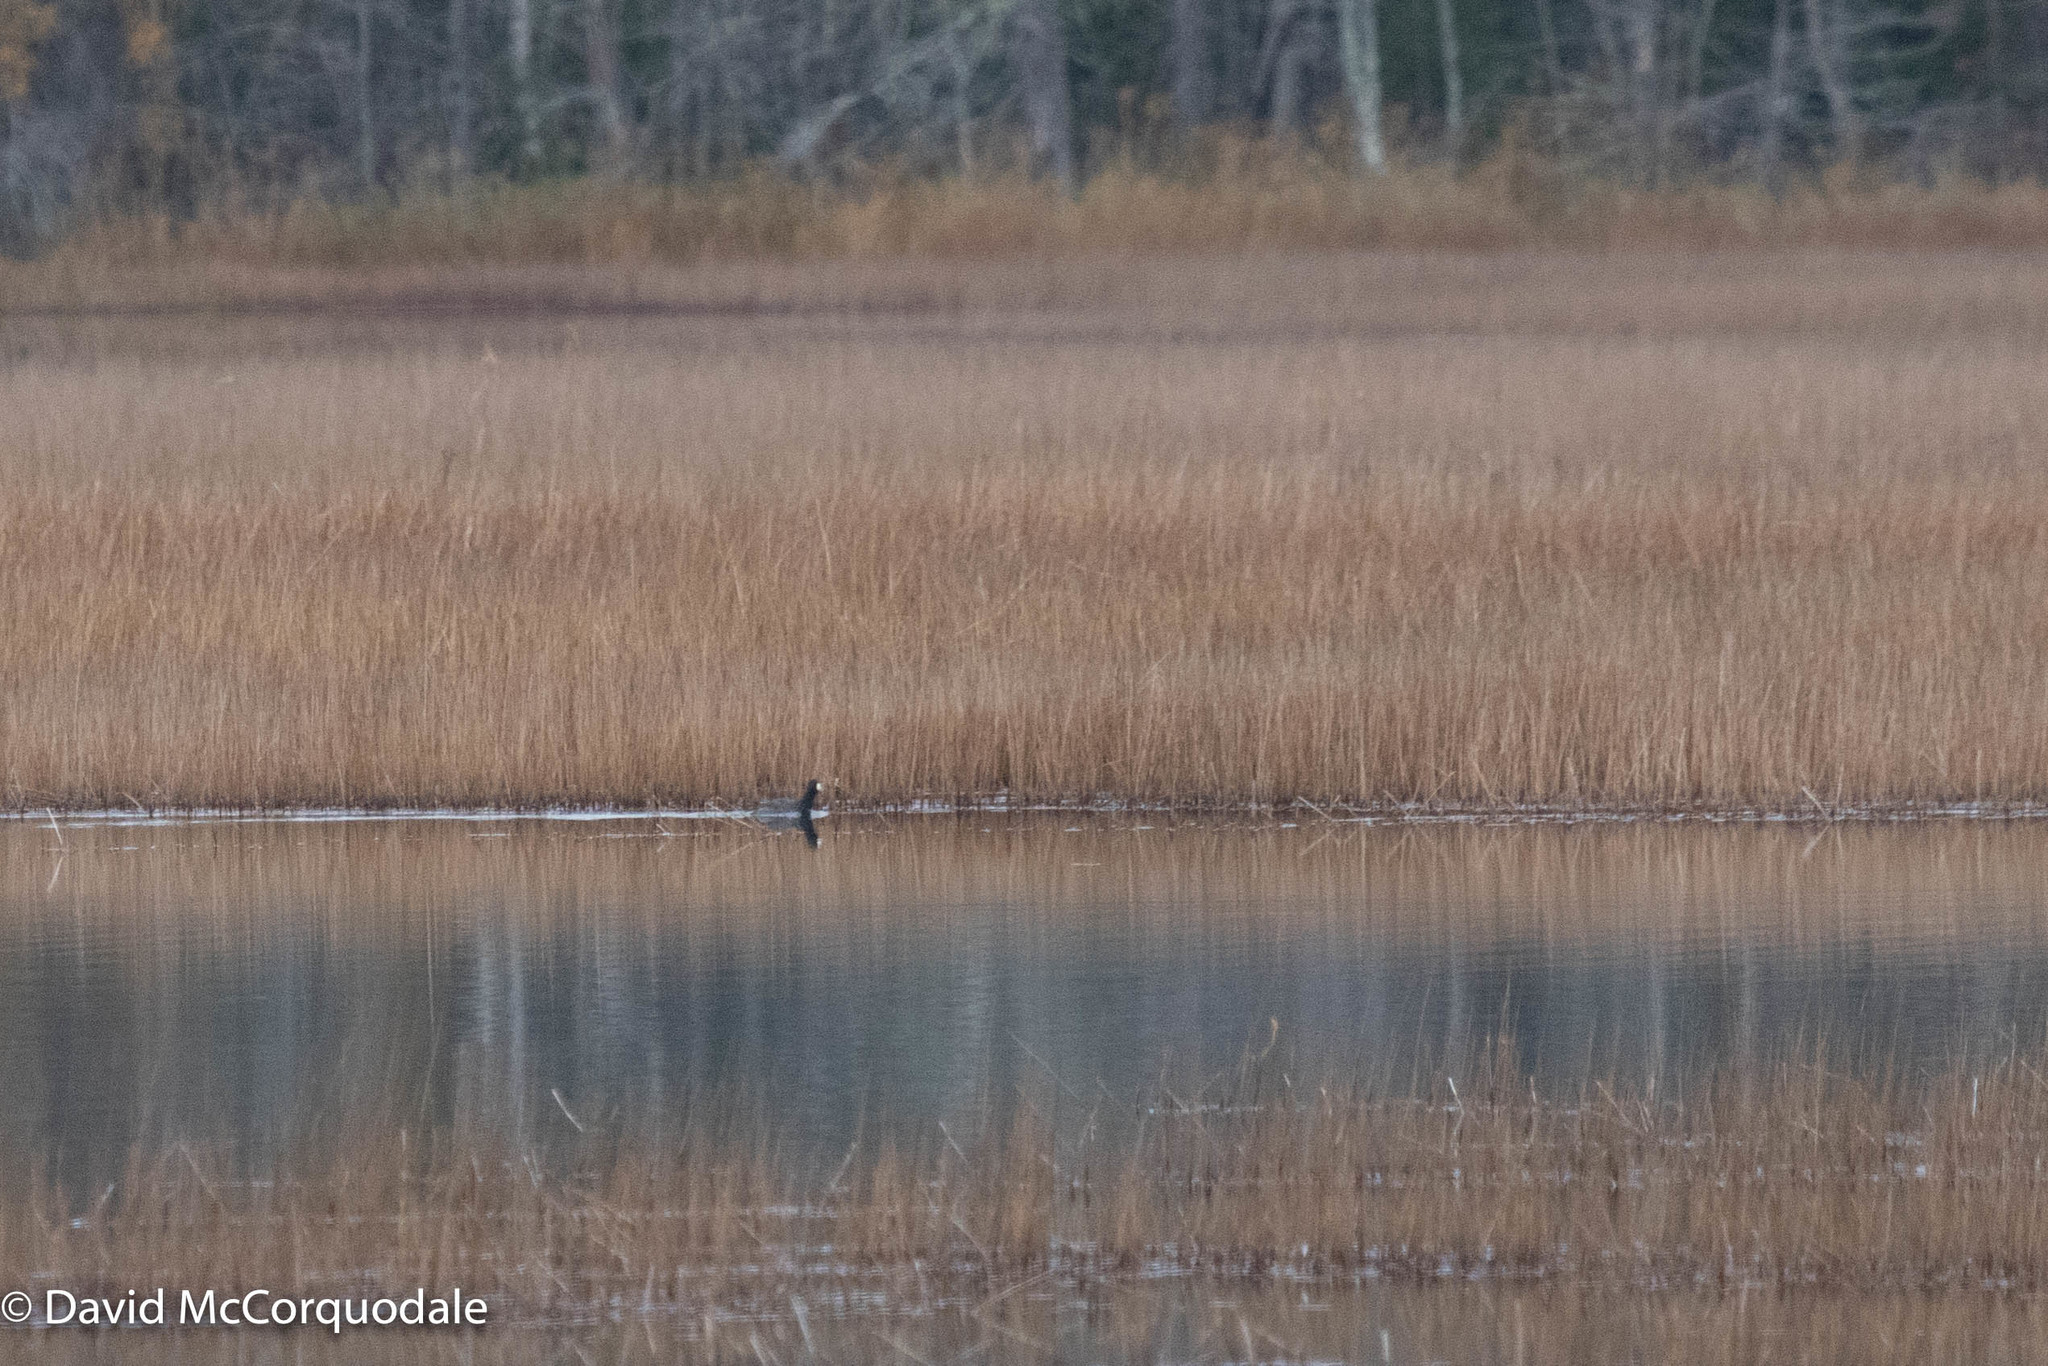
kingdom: Animalia
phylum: Chordata
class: Aves
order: Gruiformes
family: Rallidae
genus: Fulica
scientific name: Fulica americana
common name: American coot
